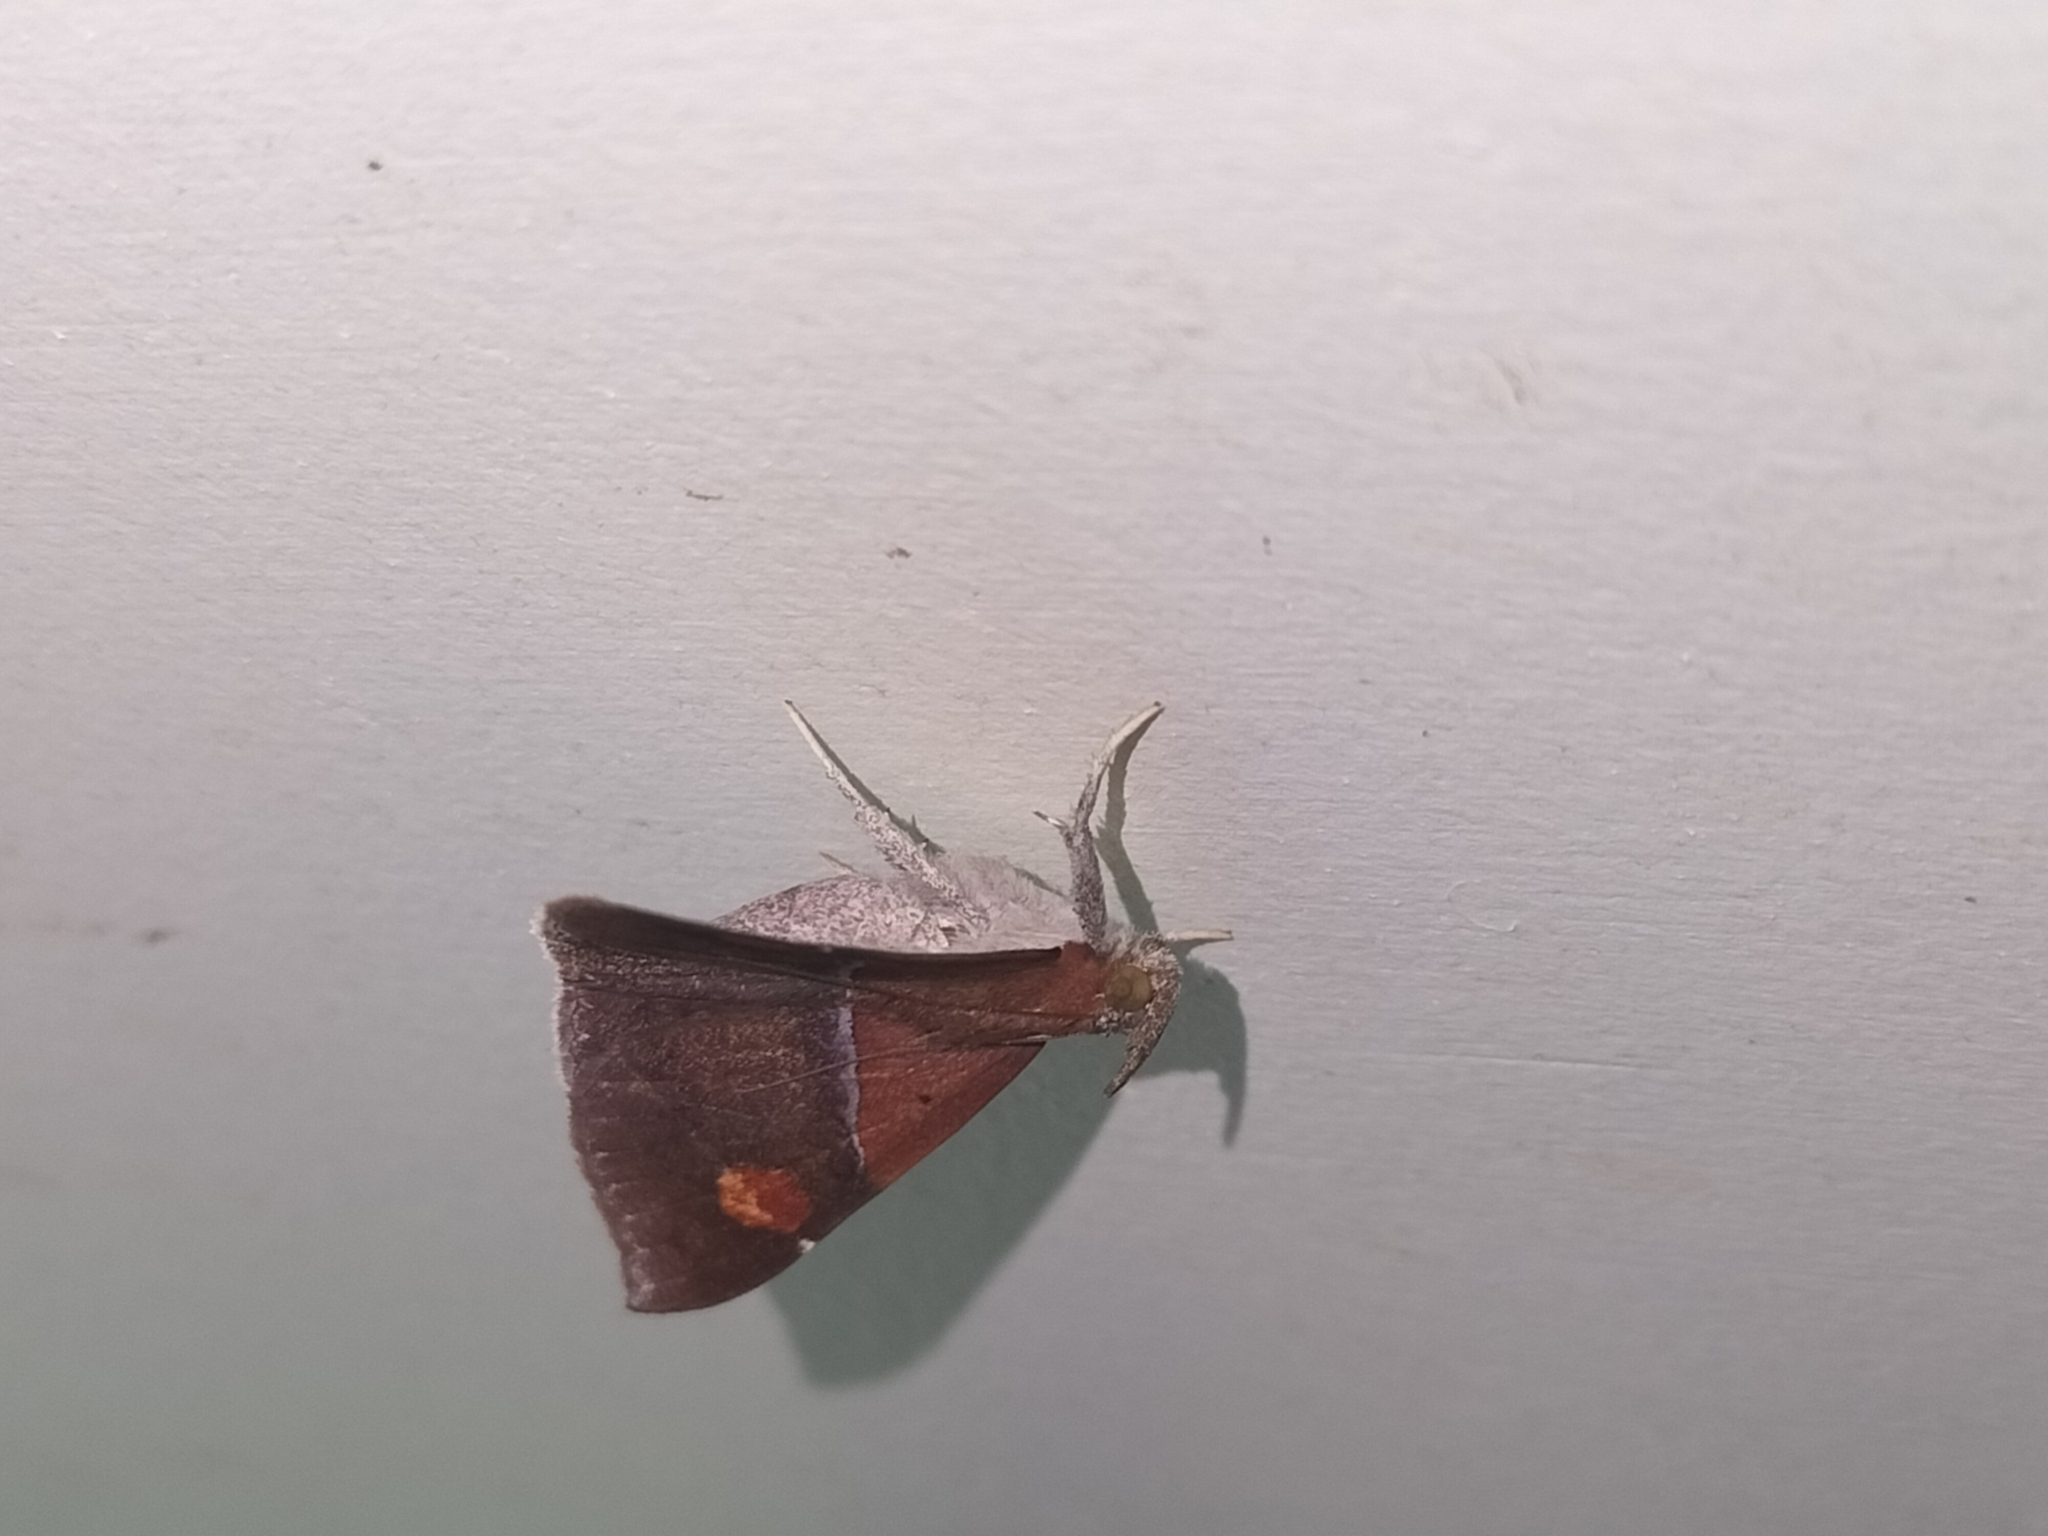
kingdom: Animalia
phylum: Arthropoda
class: Insecta
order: Lepidoptera
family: Erebidae
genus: Sympis
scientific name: Sympis rufibasis
